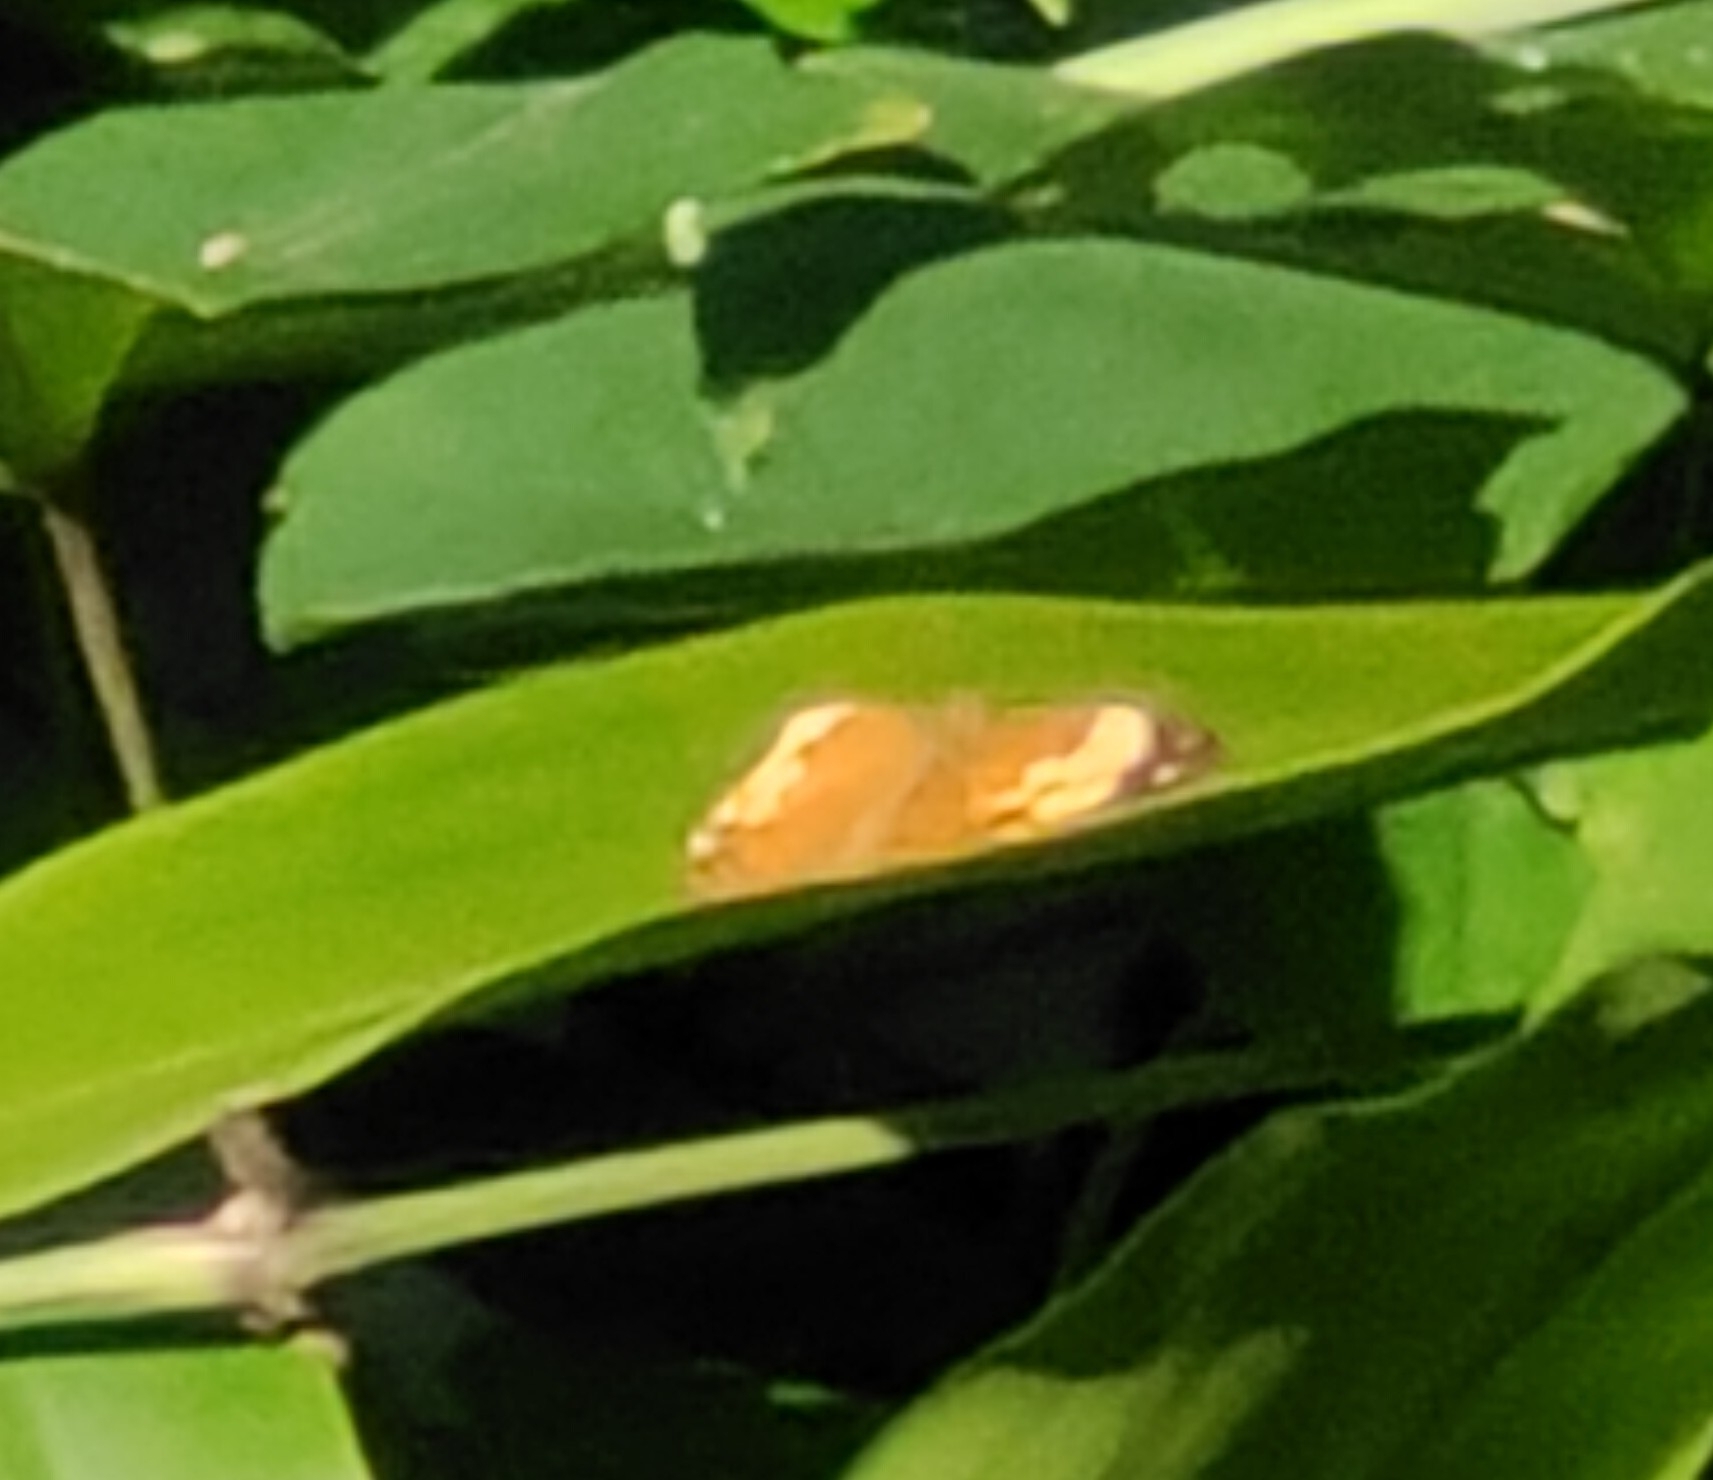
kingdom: Animalia
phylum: Arthropoda
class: Insecta
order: Lepidoptera
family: Nymphalidae
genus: Cupha
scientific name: Cupha erymanthis
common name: Rustic
